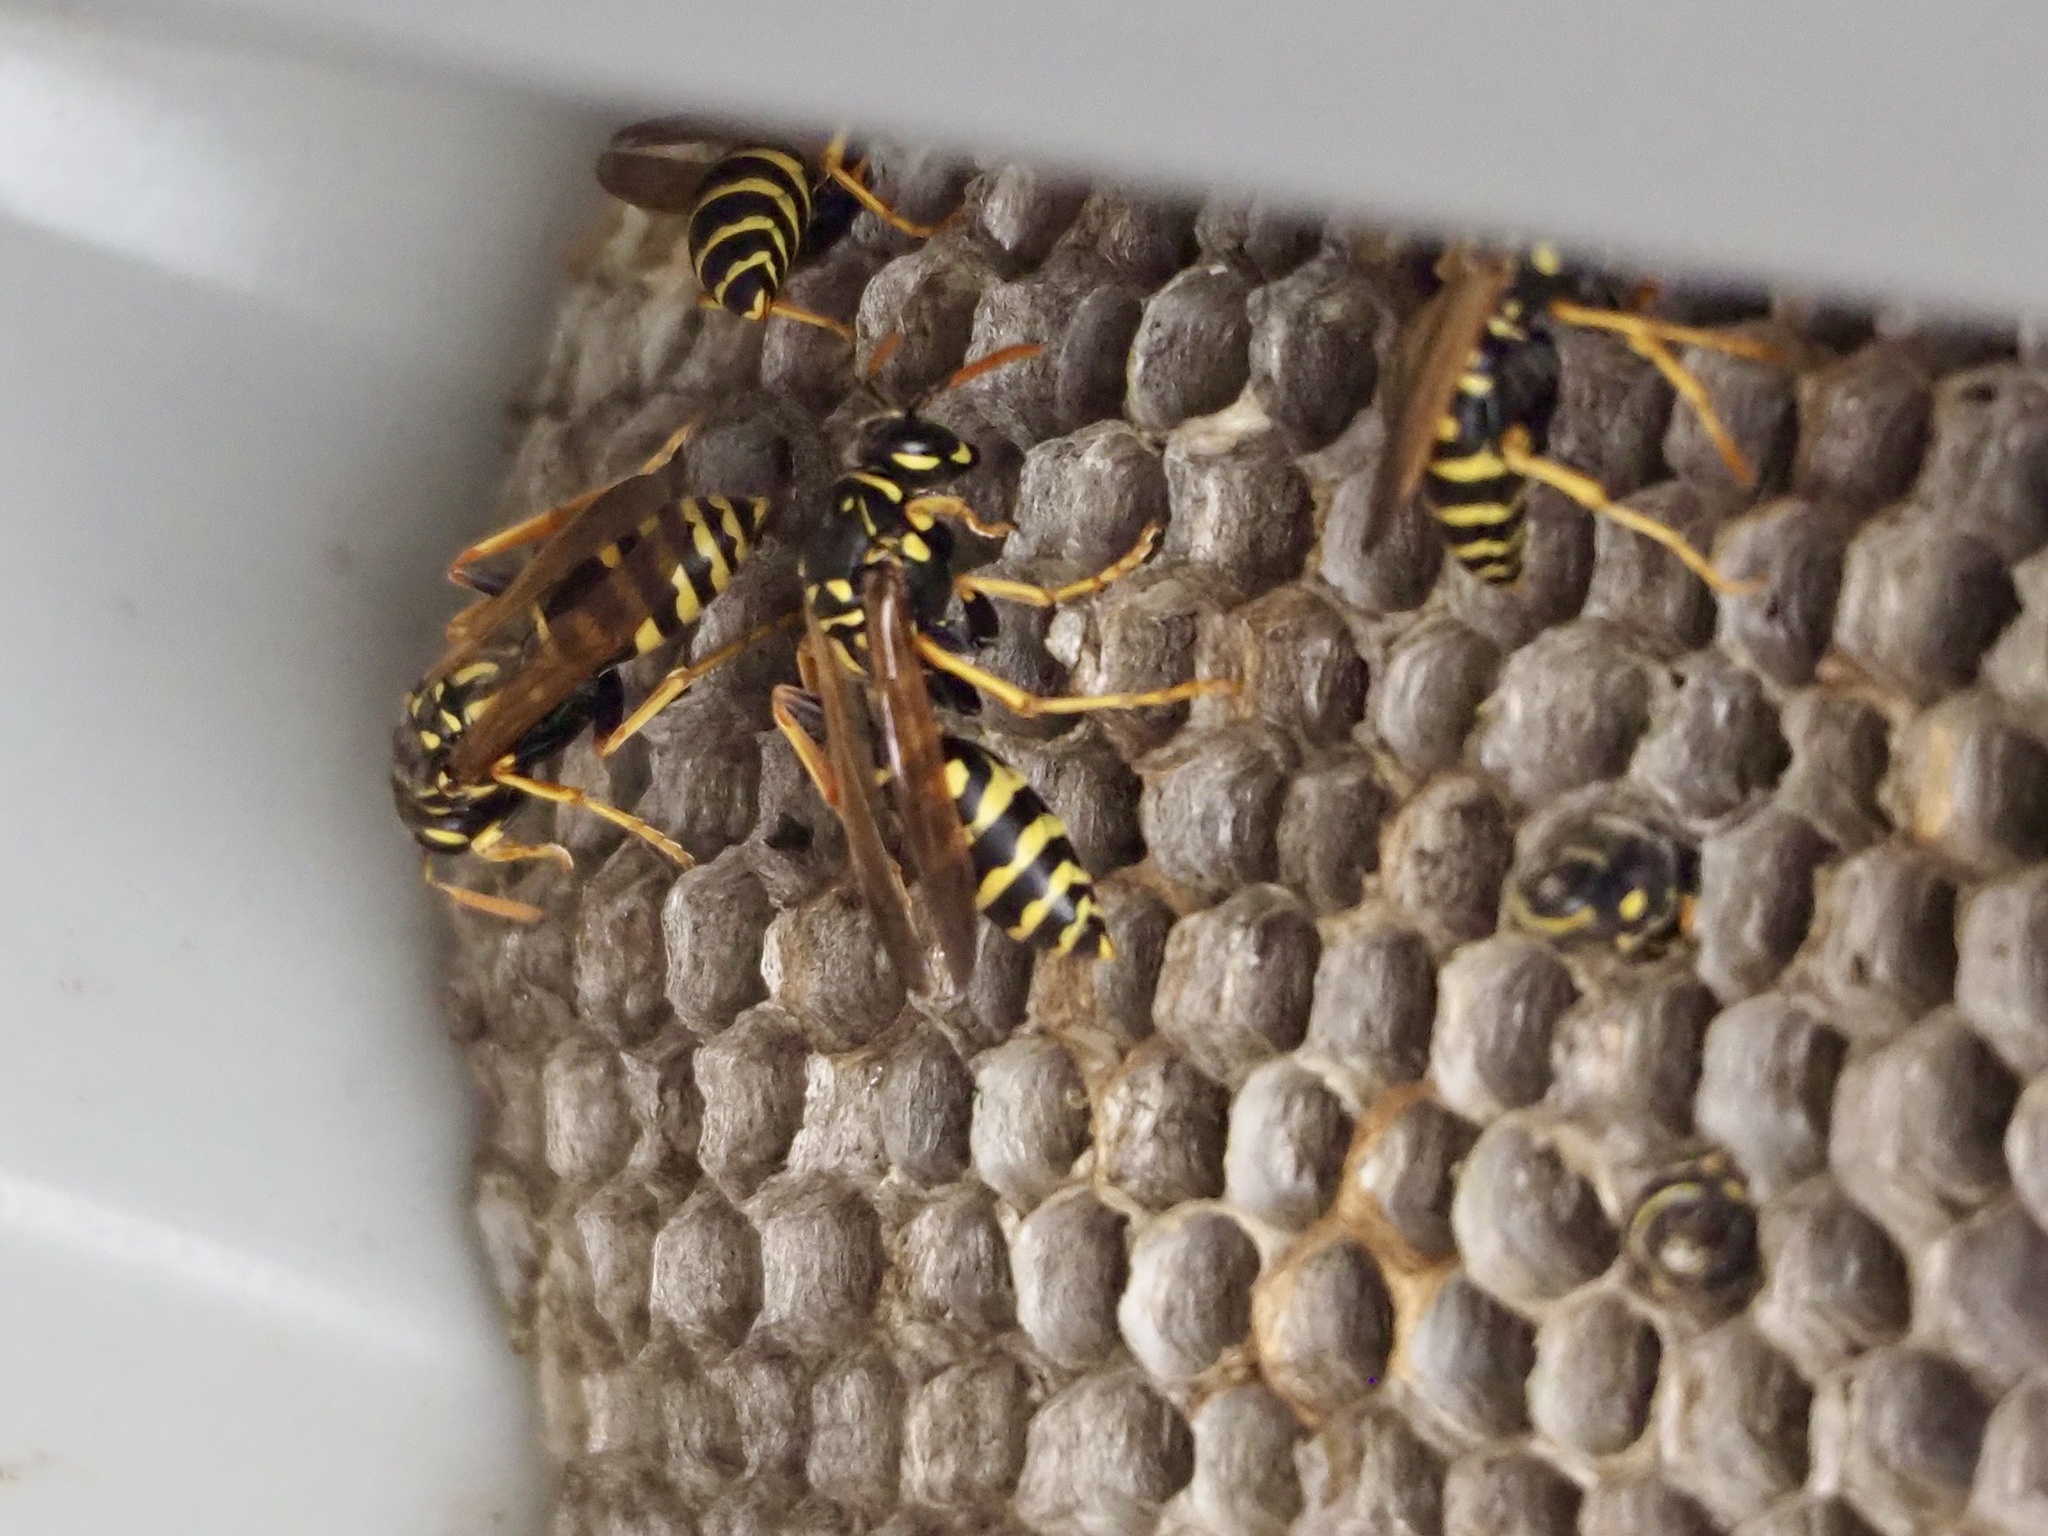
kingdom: Animalia
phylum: Arthropoda
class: Insecta
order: Hymenoptera
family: Eumenidae
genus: Polistes
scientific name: Polistes dominula
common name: Paper wasp
